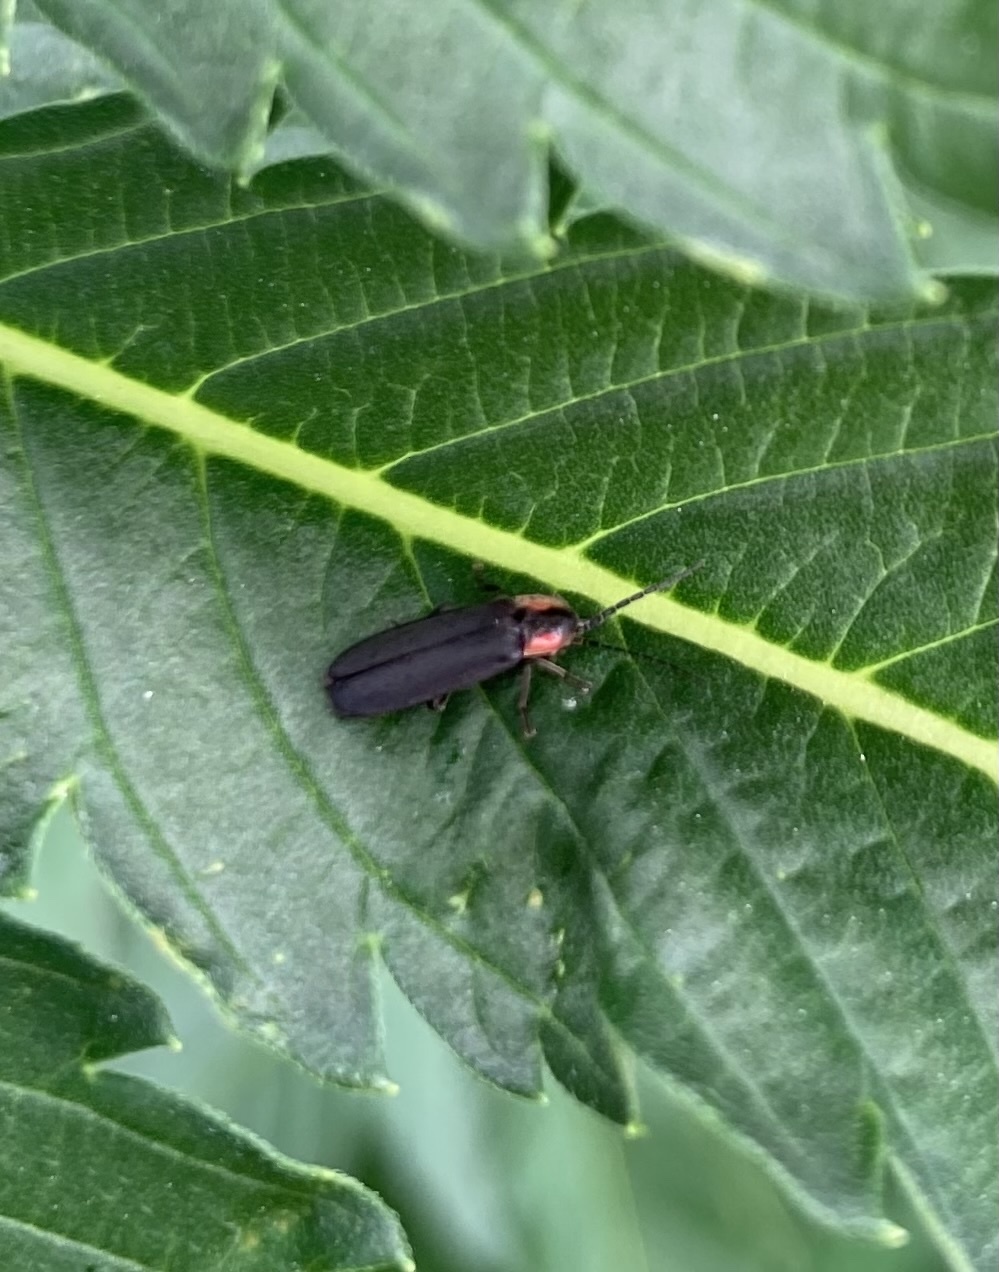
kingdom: Animalia
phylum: Arthropoda
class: Insecta
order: Coleoptera
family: Lampyridae
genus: Pyropyga
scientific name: Pyropyga
